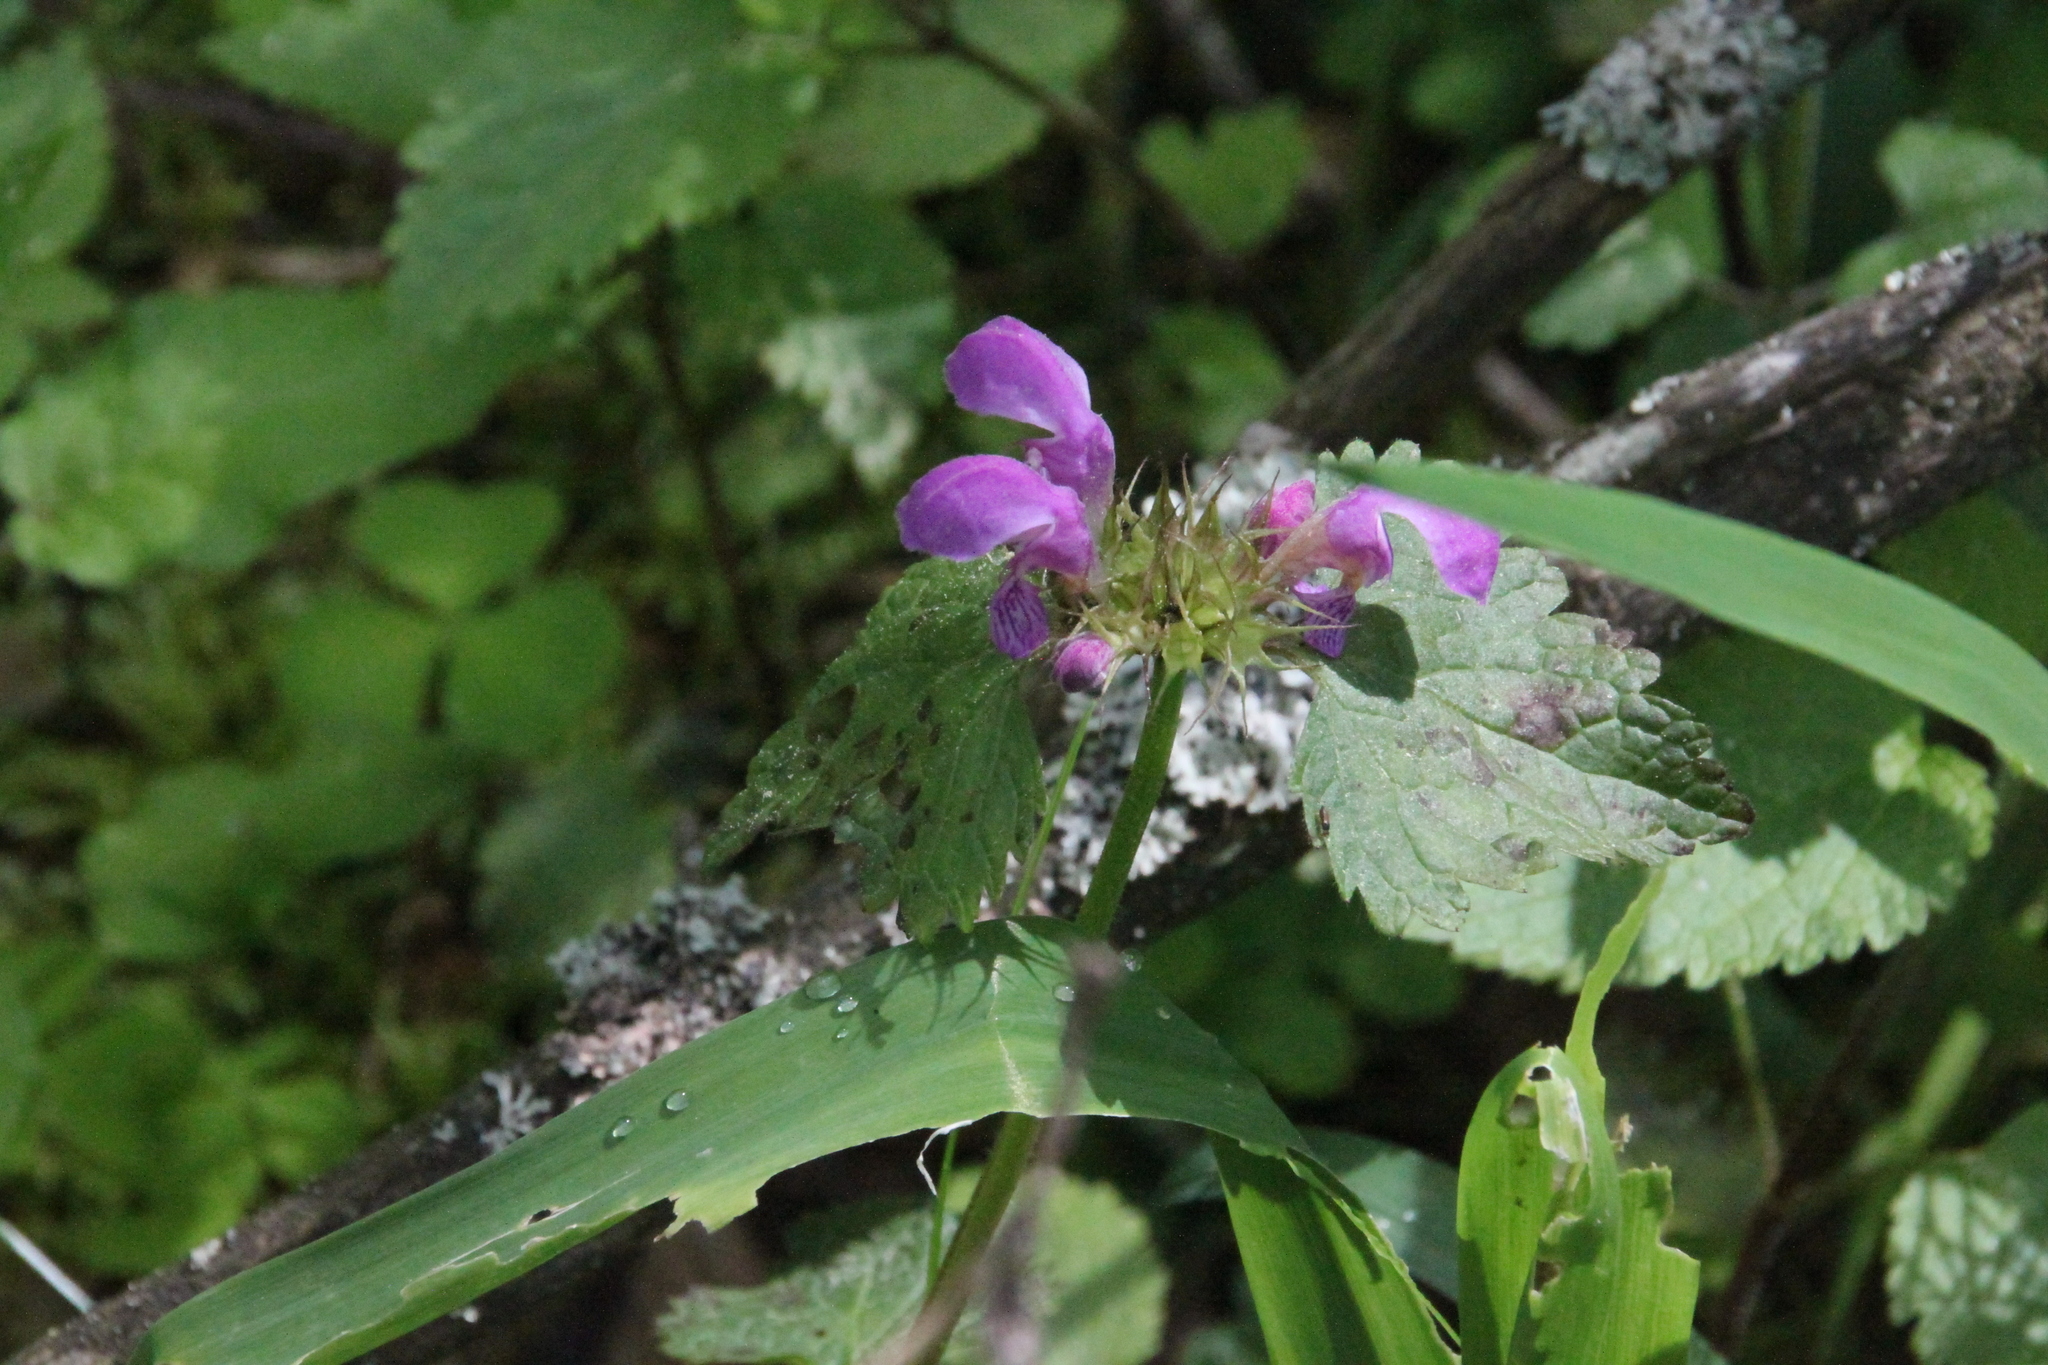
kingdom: Plantae
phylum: Tracheophyta
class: Magnoliopsida
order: Lamiales
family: Lamiaceae
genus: Lamium
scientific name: Lamium maculatum
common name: Spotted dead-nettle
